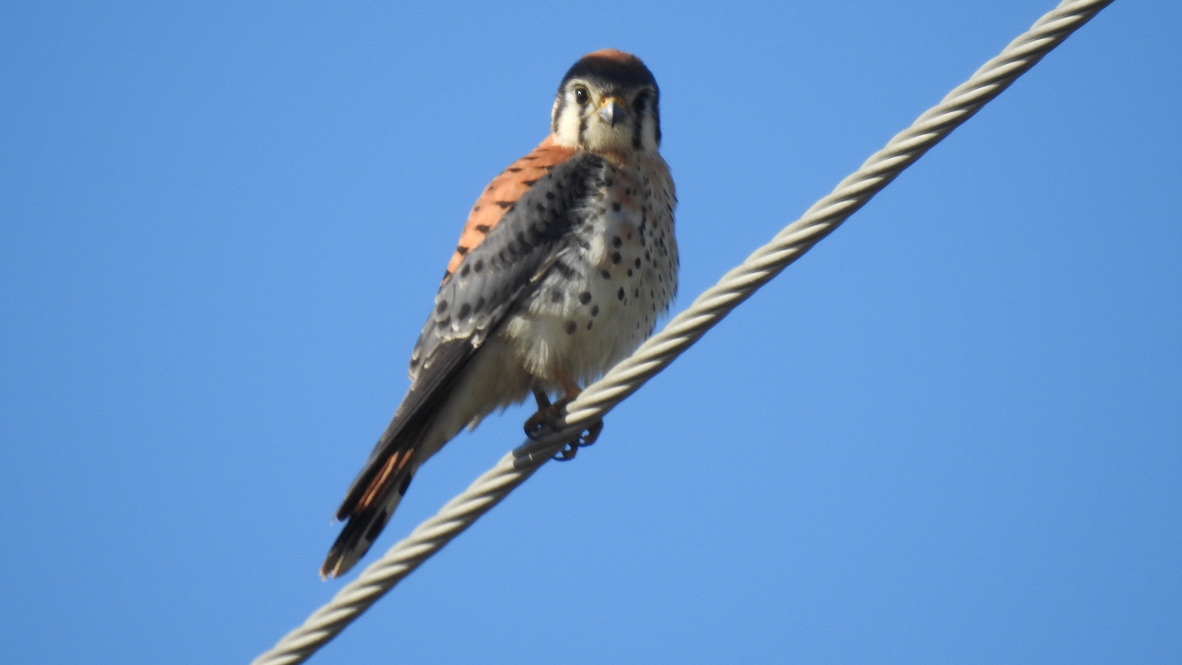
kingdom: Animalia
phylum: Chordata
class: Aves
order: Falconiformes
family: Falconidae
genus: Falco
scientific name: Falco sparverius
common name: American kestrel
